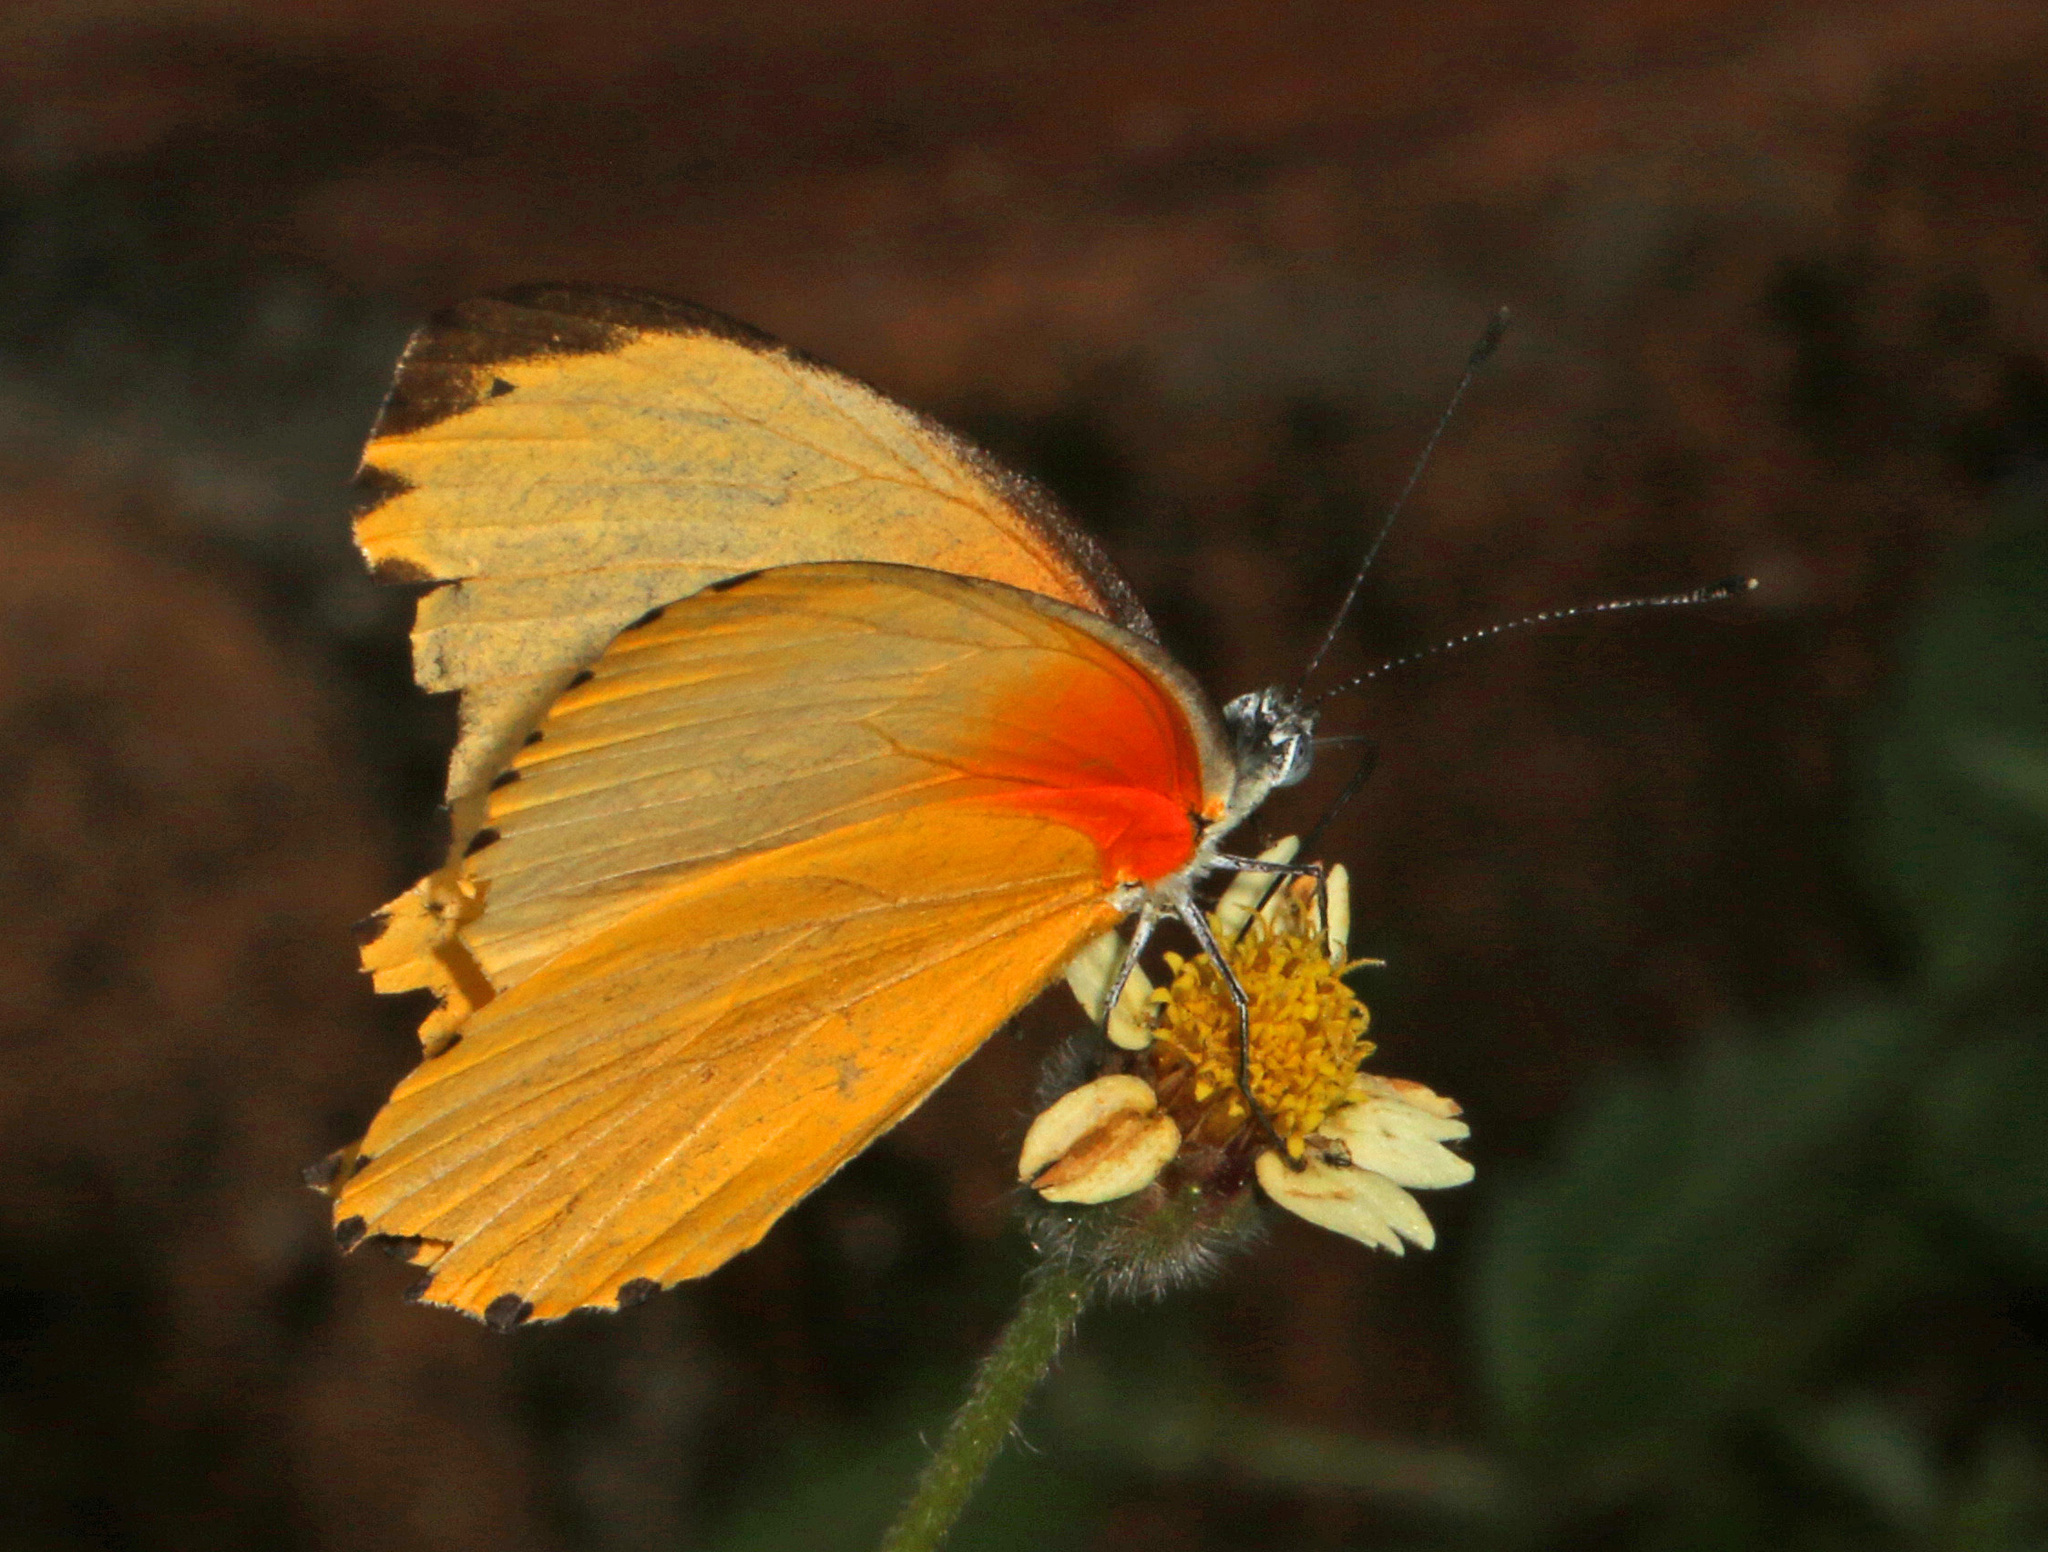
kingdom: Animalia
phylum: Arthropoda
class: Insecta
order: Lepidoptera
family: Pieridae
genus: Mylothris
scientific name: Mylothris agathina
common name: Eastern dotted border
